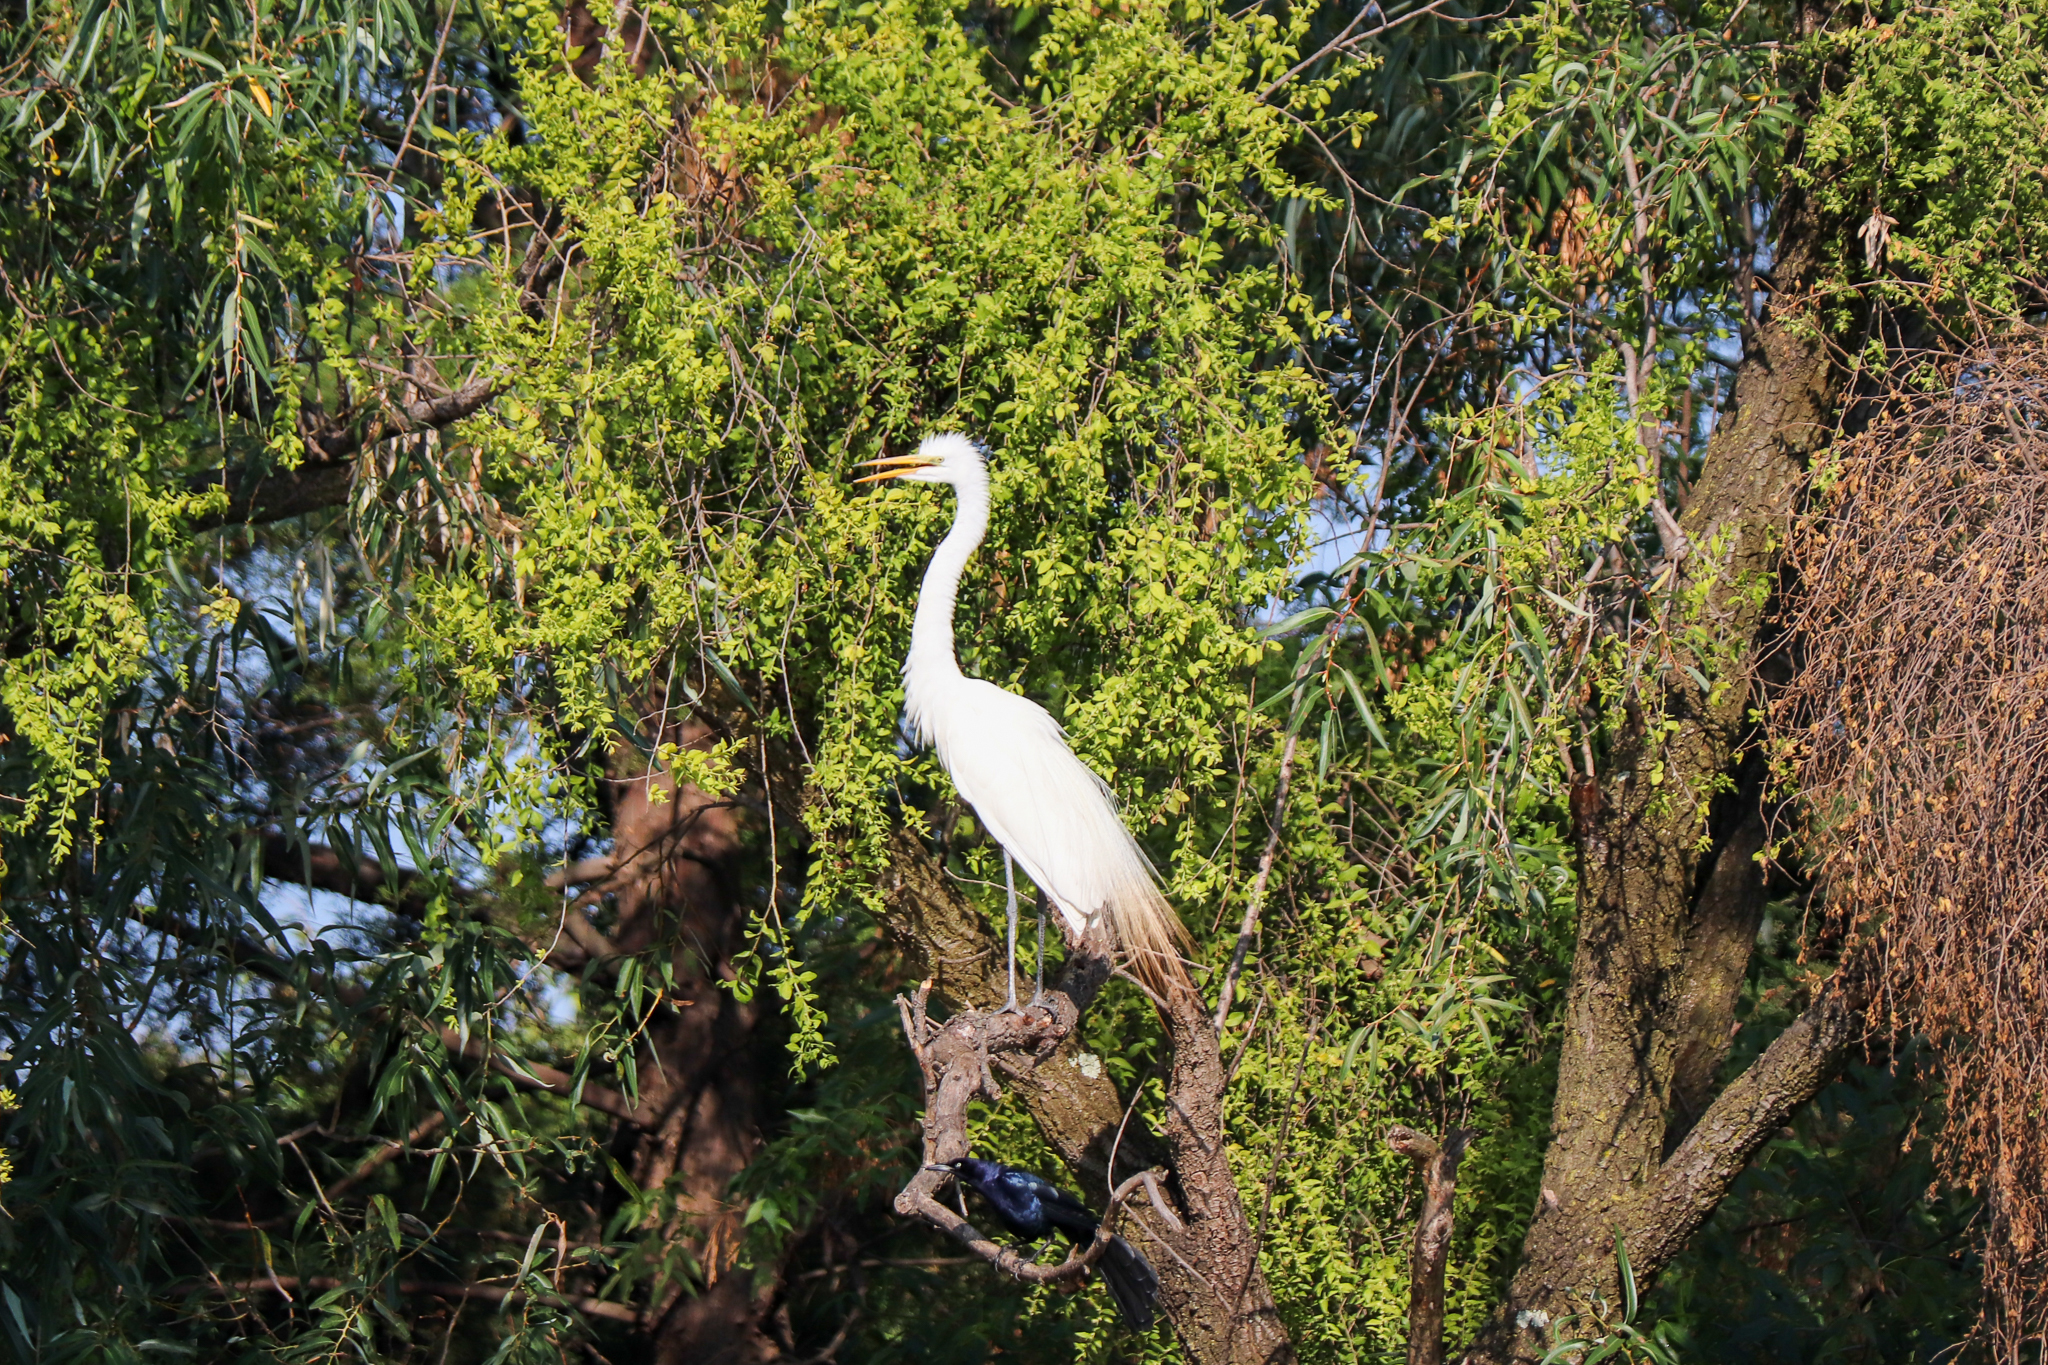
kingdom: Animalia
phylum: Chordata
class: Aves
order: Pelecaniformes
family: Ardeidae
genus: Ardea
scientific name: Ardea alba
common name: Great egret
